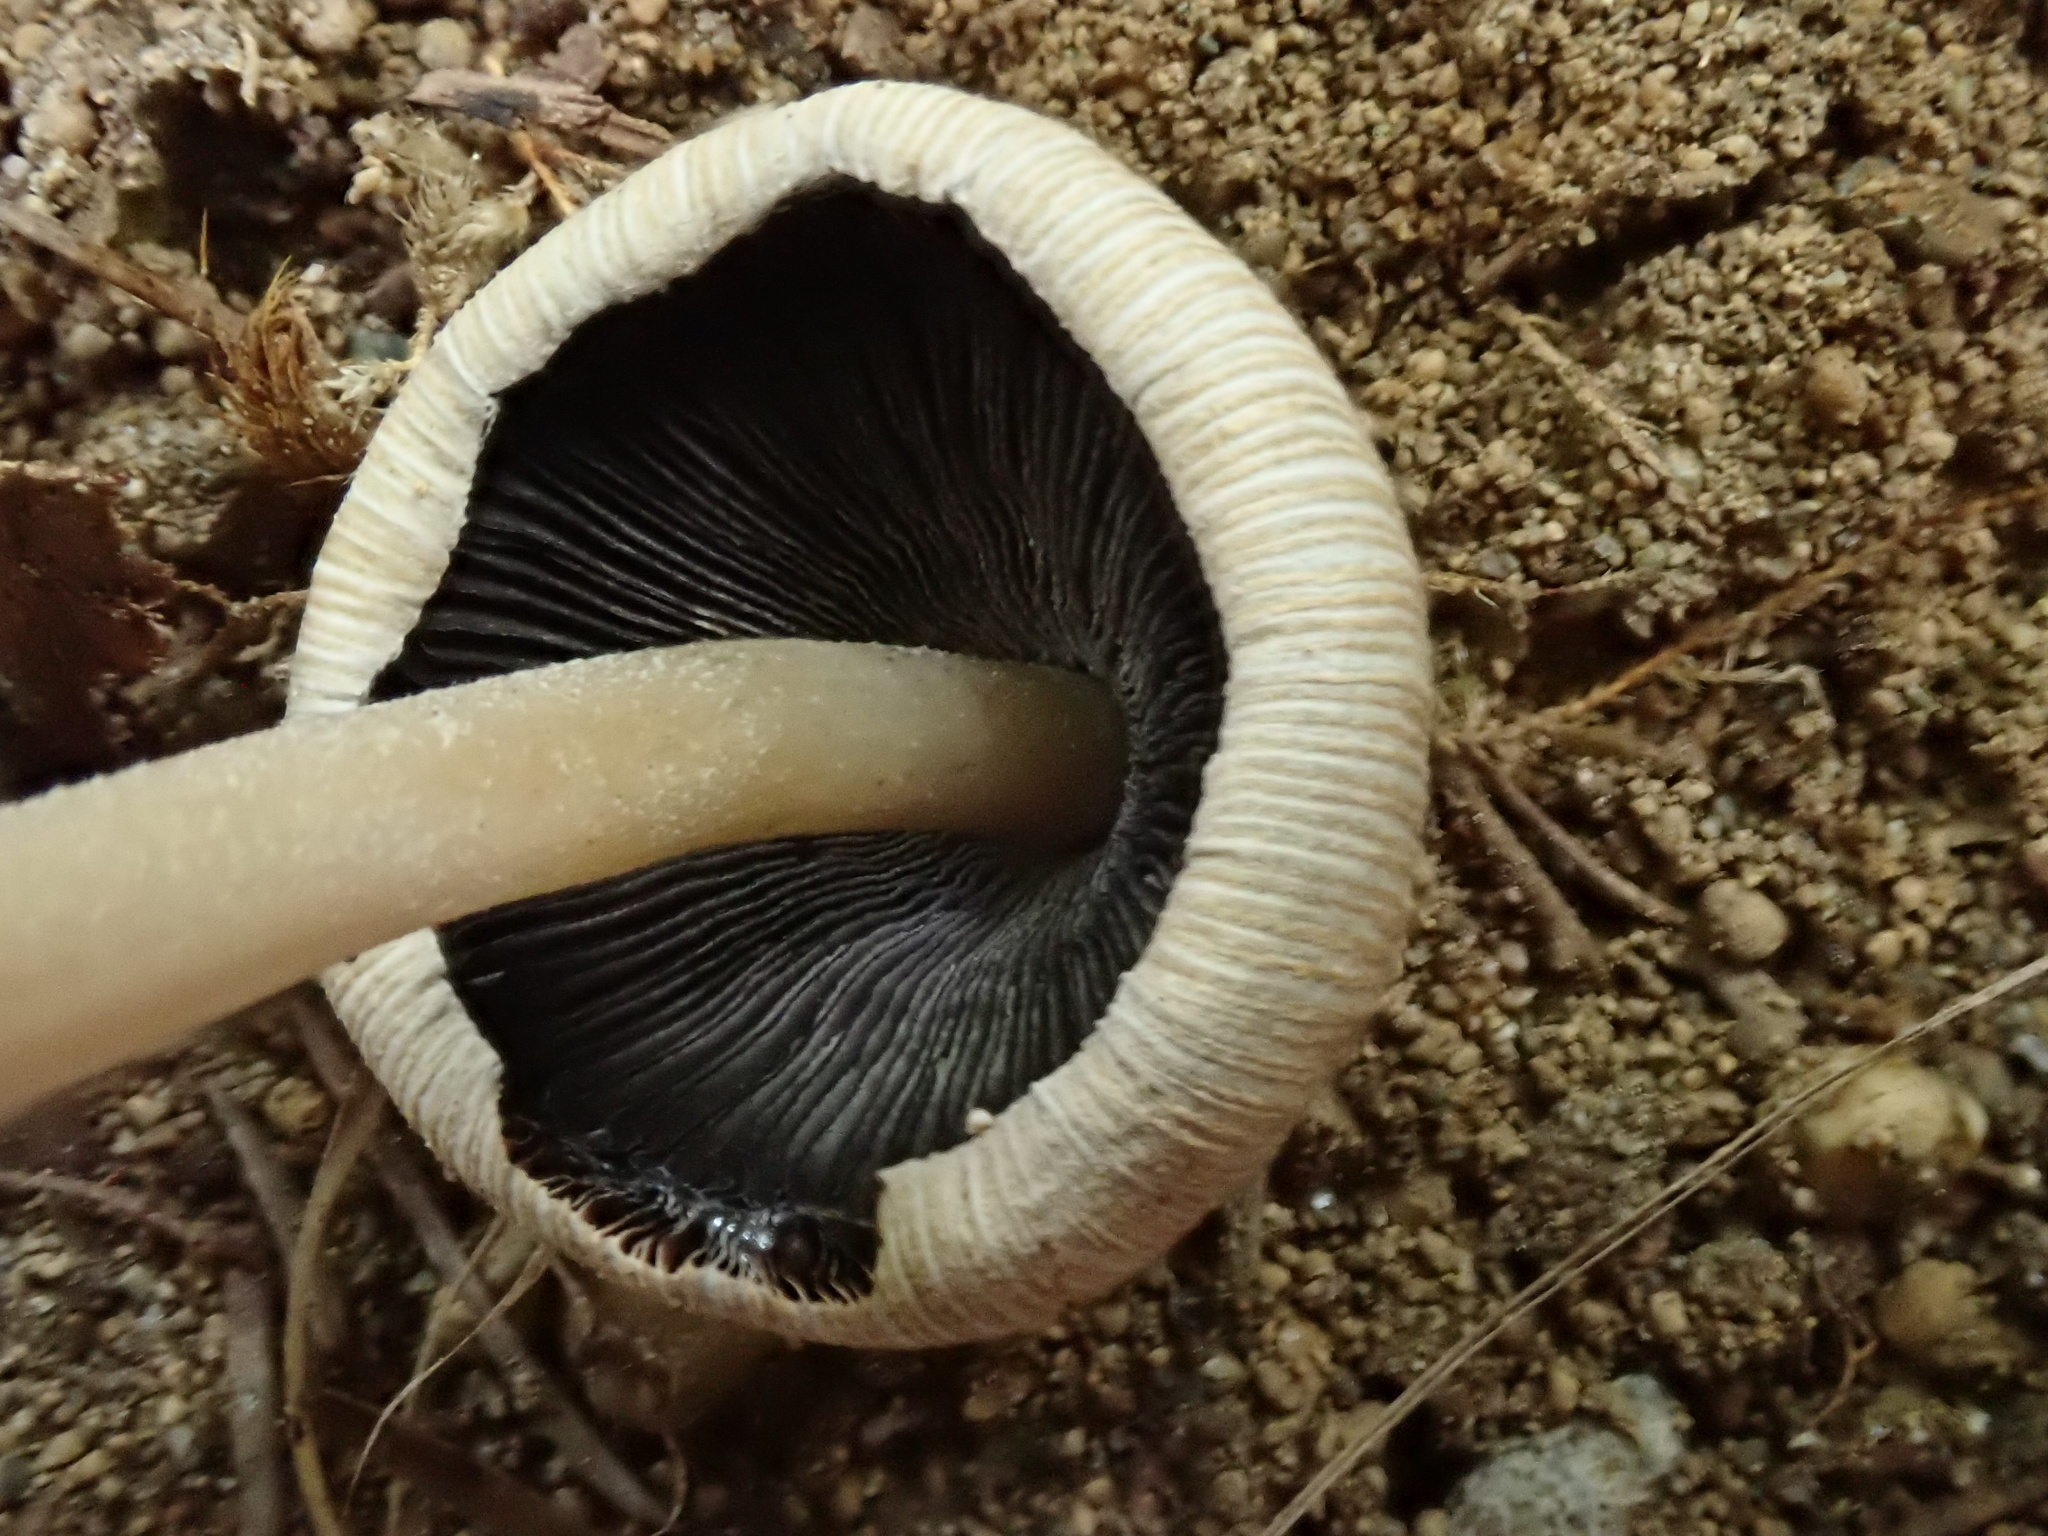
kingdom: Fungi
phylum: Basidiomycota
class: Agaricomycetes
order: Agaricales
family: Psathyrellaceae
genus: Coprinellus
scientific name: Coprinellus micaceus
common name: Glistening ink-cap
